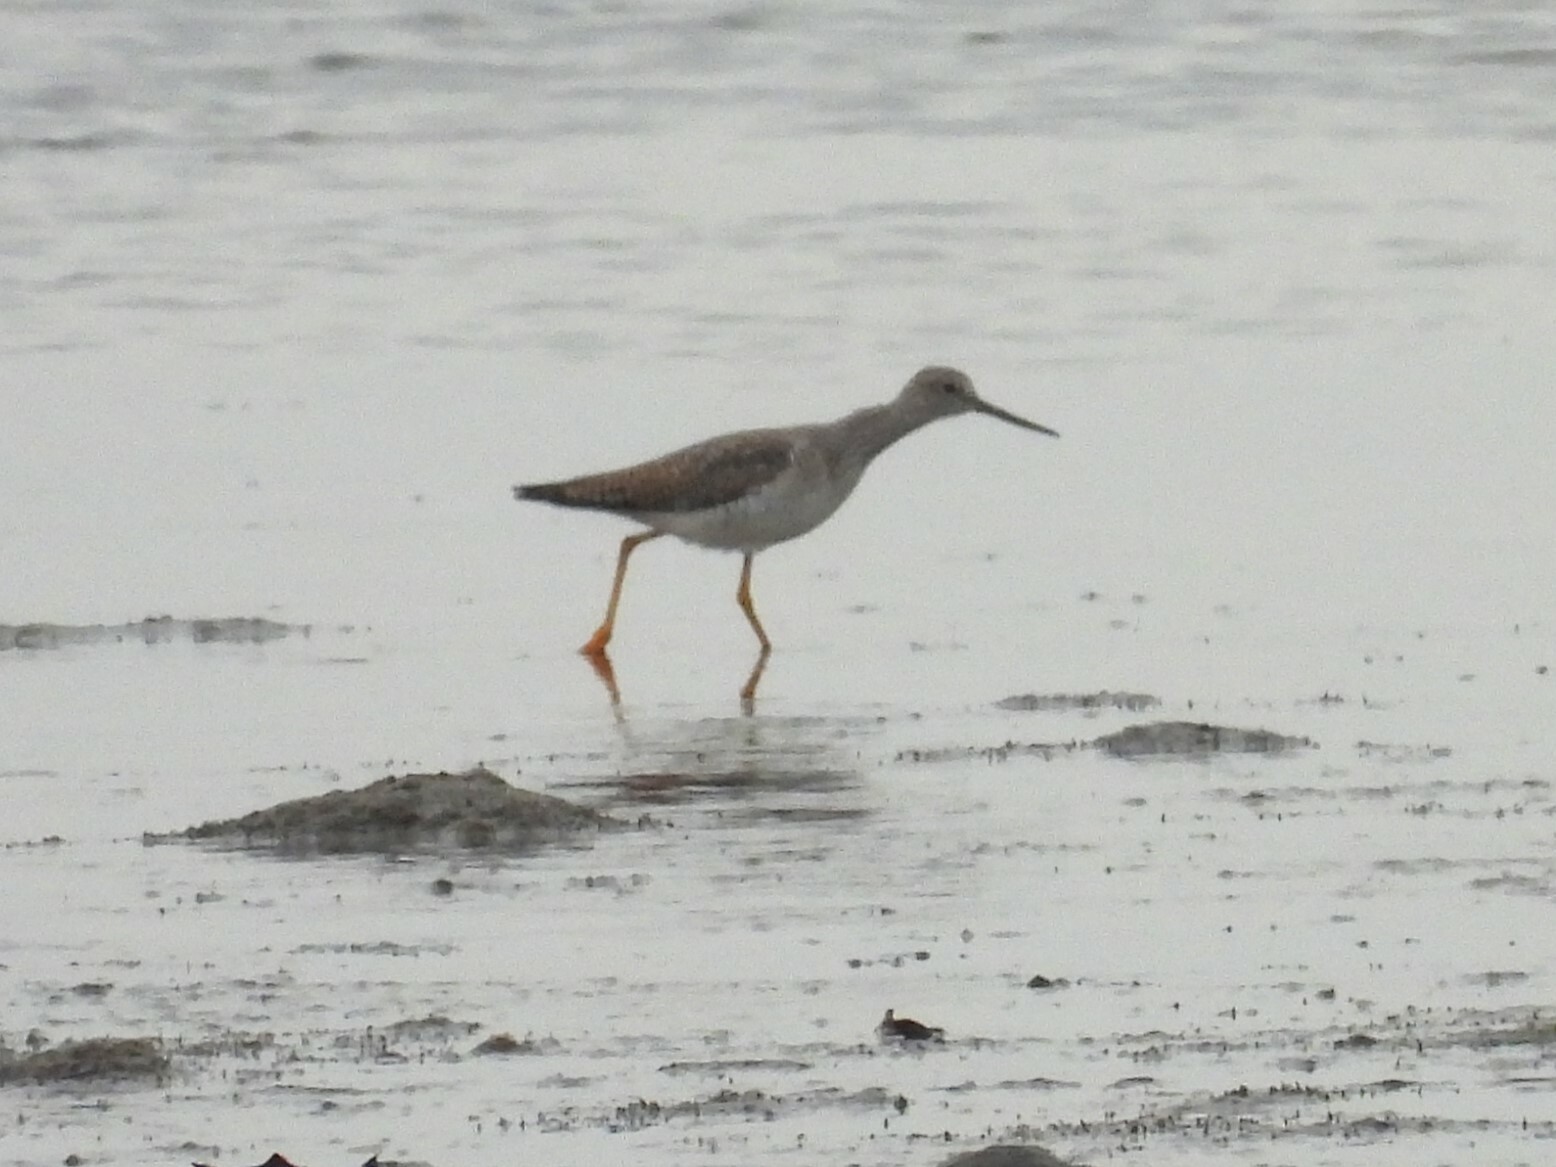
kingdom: Animalia
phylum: Chordata
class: Aves
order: Charadriiformes
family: Scolopacidae
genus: Tringa
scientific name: Tringa melanoleuca
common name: Greater yellowlegs
